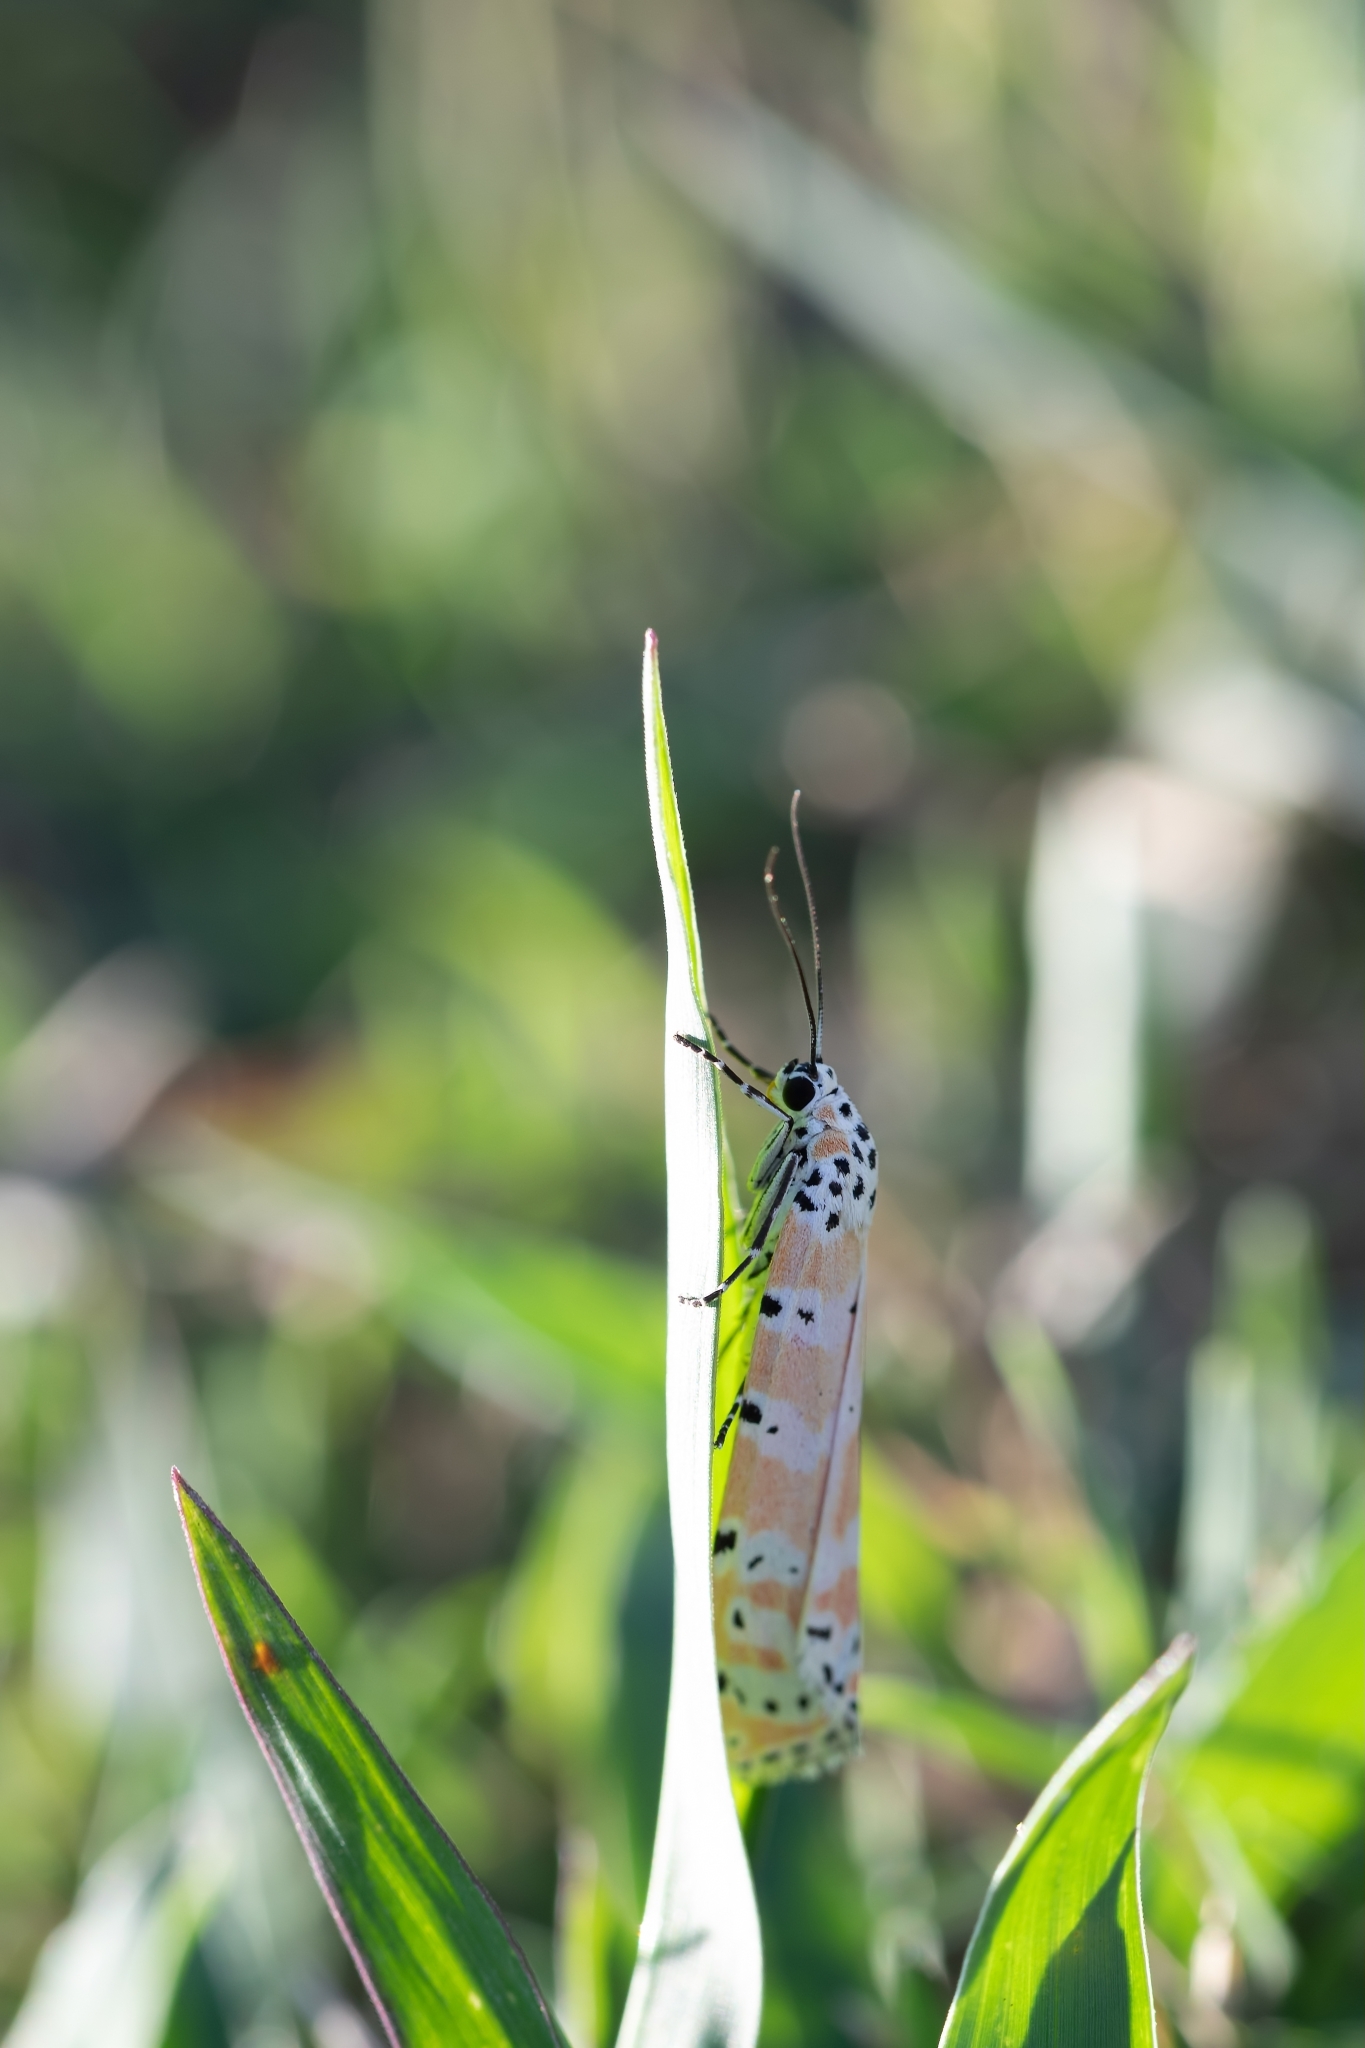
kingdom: Animalia
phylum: Arthropoda
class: Insecta
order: Lepidoptera
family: Erebidae
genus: Utetheisa
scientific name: Utetheisa ornatrix
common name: Beautiful utetheisa
